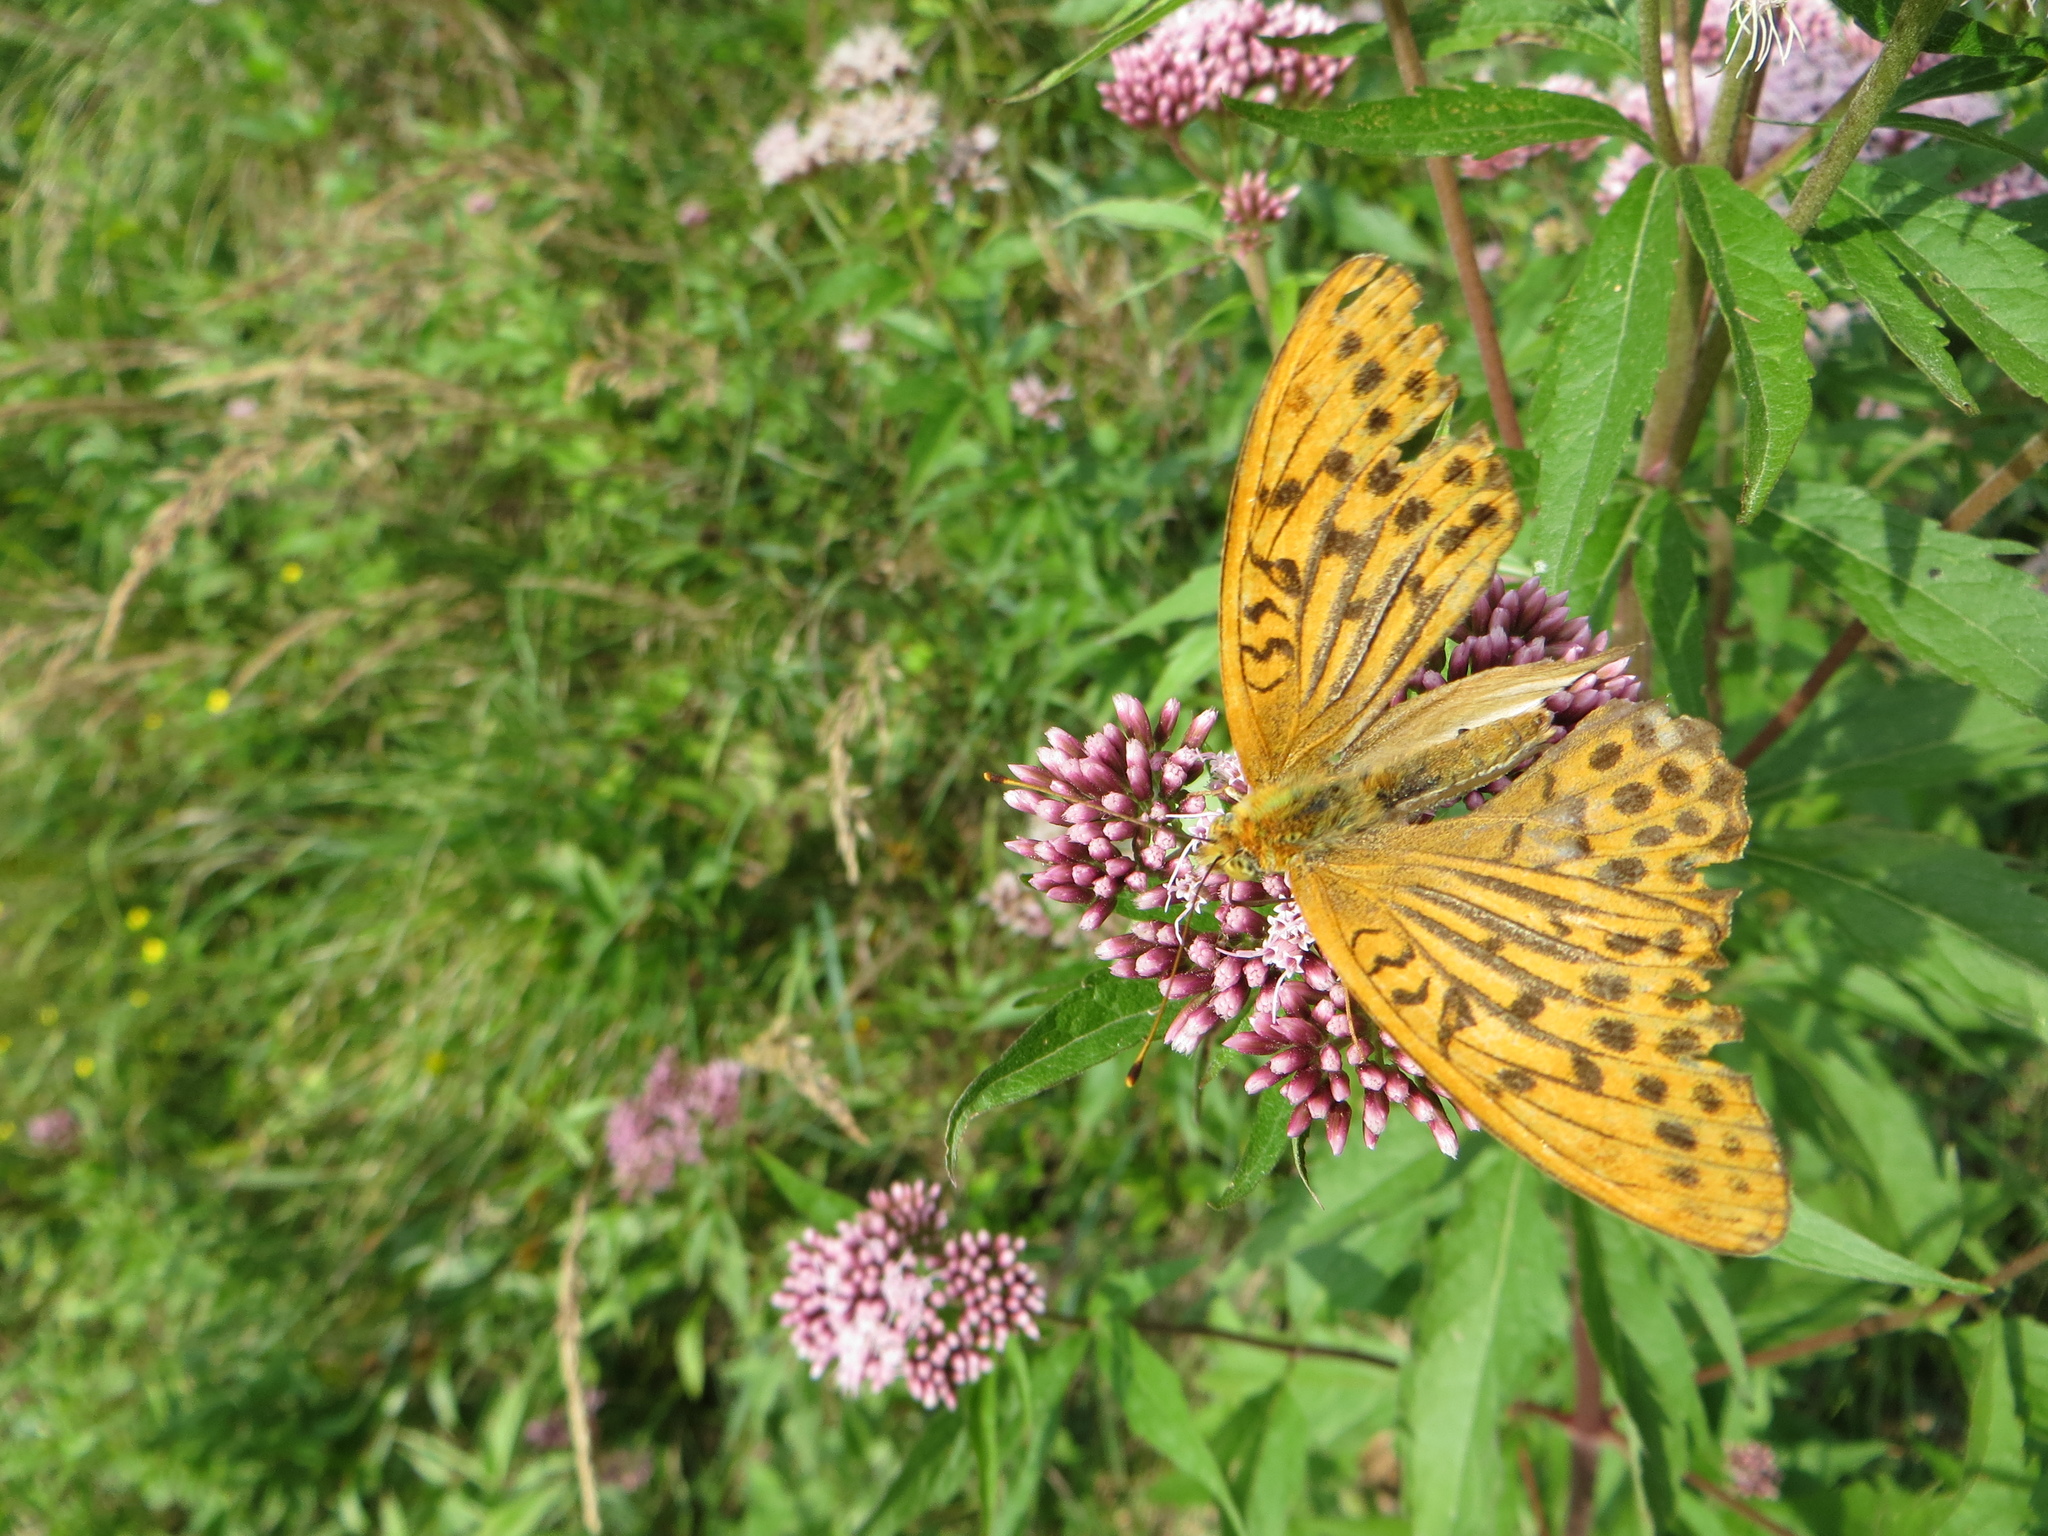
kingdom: Animalia
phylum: Arthropoda
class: Insecta
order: Lepidoptera
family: Nymphalidae
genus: Argynnis
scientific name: Argynnis paphia
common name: Silver-washed fritillary
